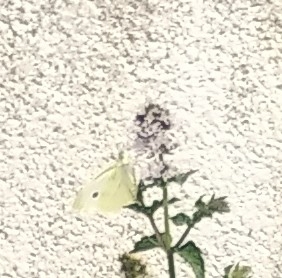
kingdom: Animalia
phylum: Arthropoda
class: Insecta
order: Lepidoptera
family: Pieridae
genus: Pieris
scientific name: Pieris rapae
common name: Small white
